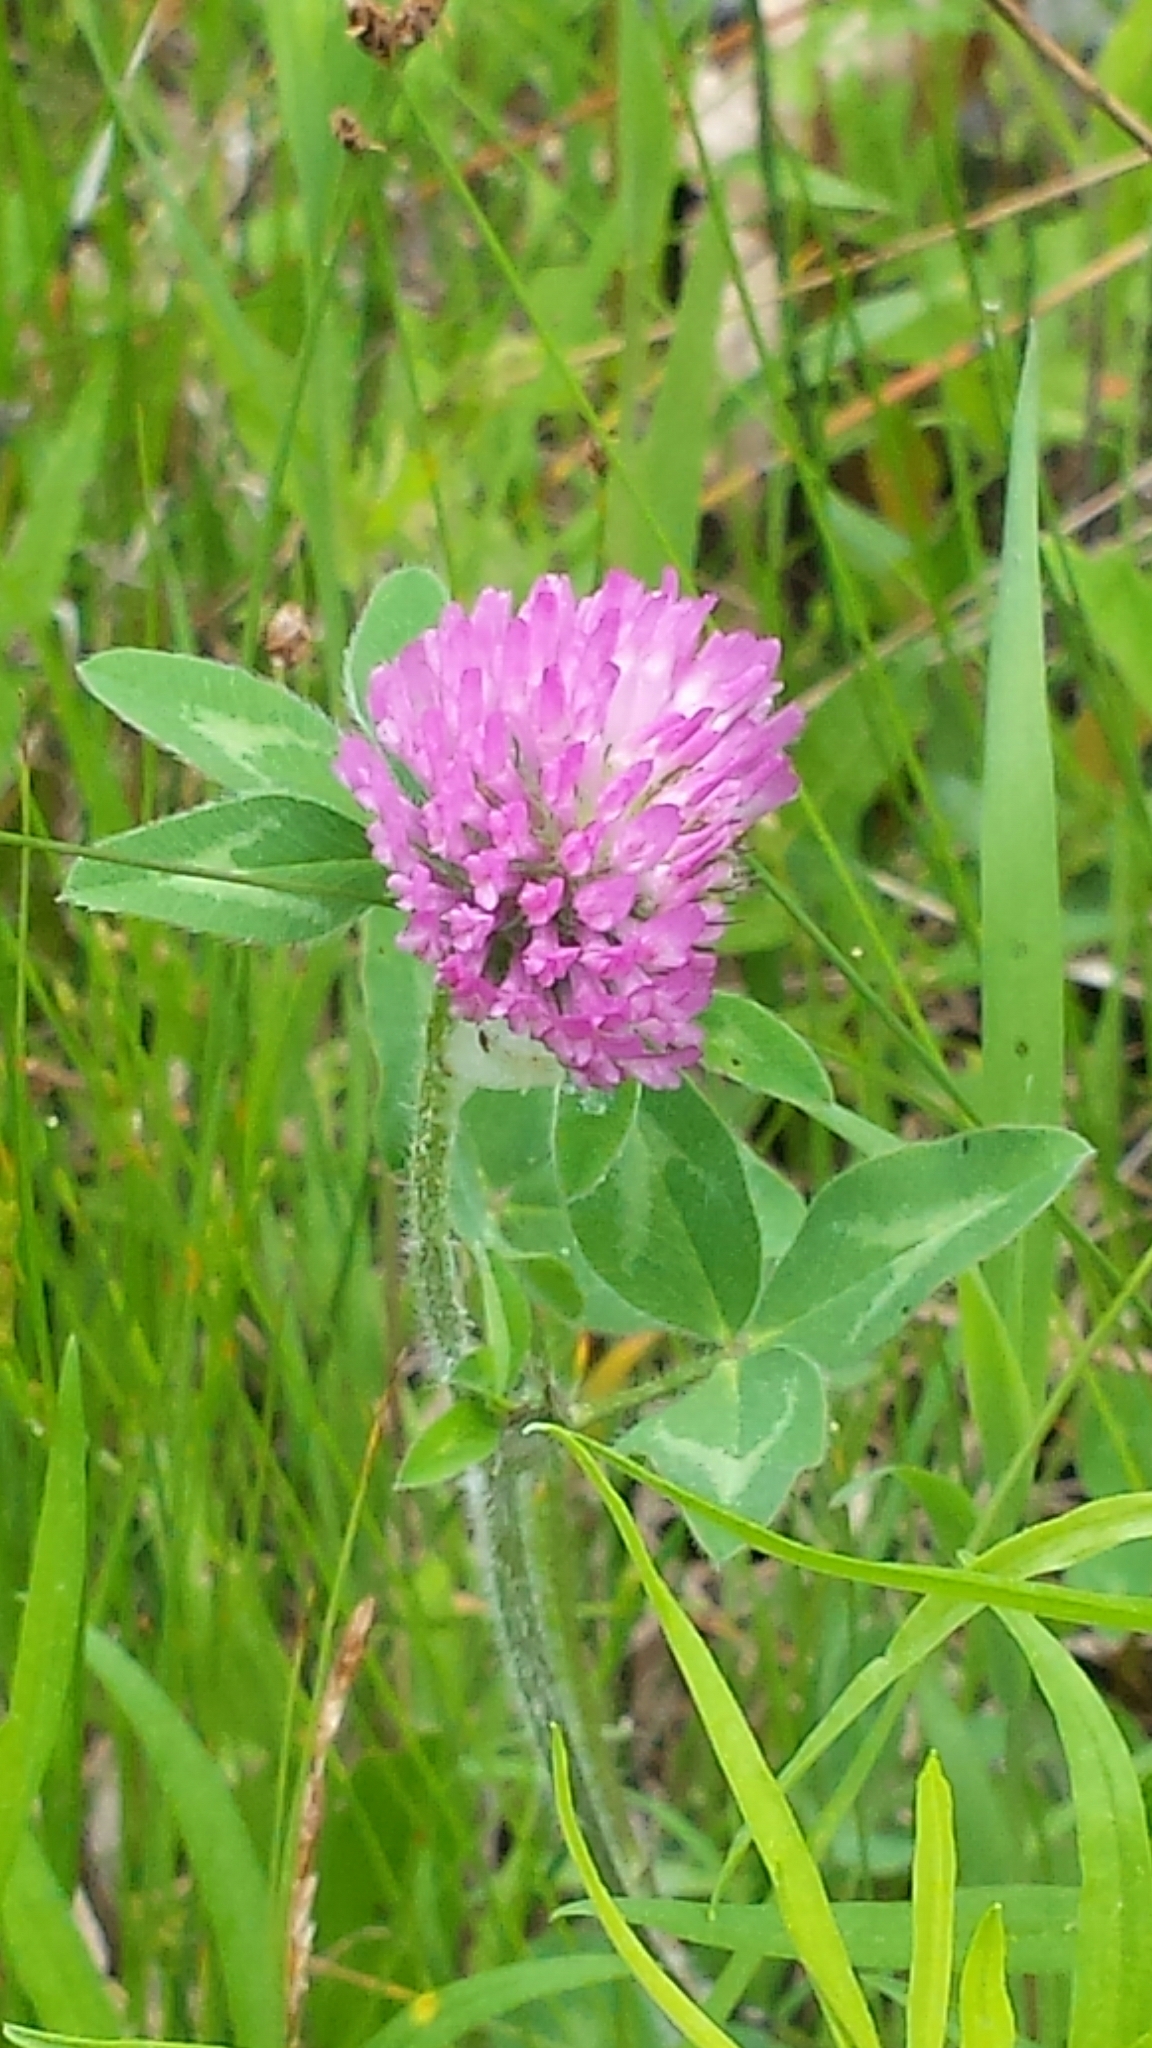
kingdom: Plantae
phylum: Tracheophyta
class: Magnoliopsida
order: Fabales
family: Fabaceae
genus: Trifolium
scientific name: Trifolium pratense
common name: Red clover
